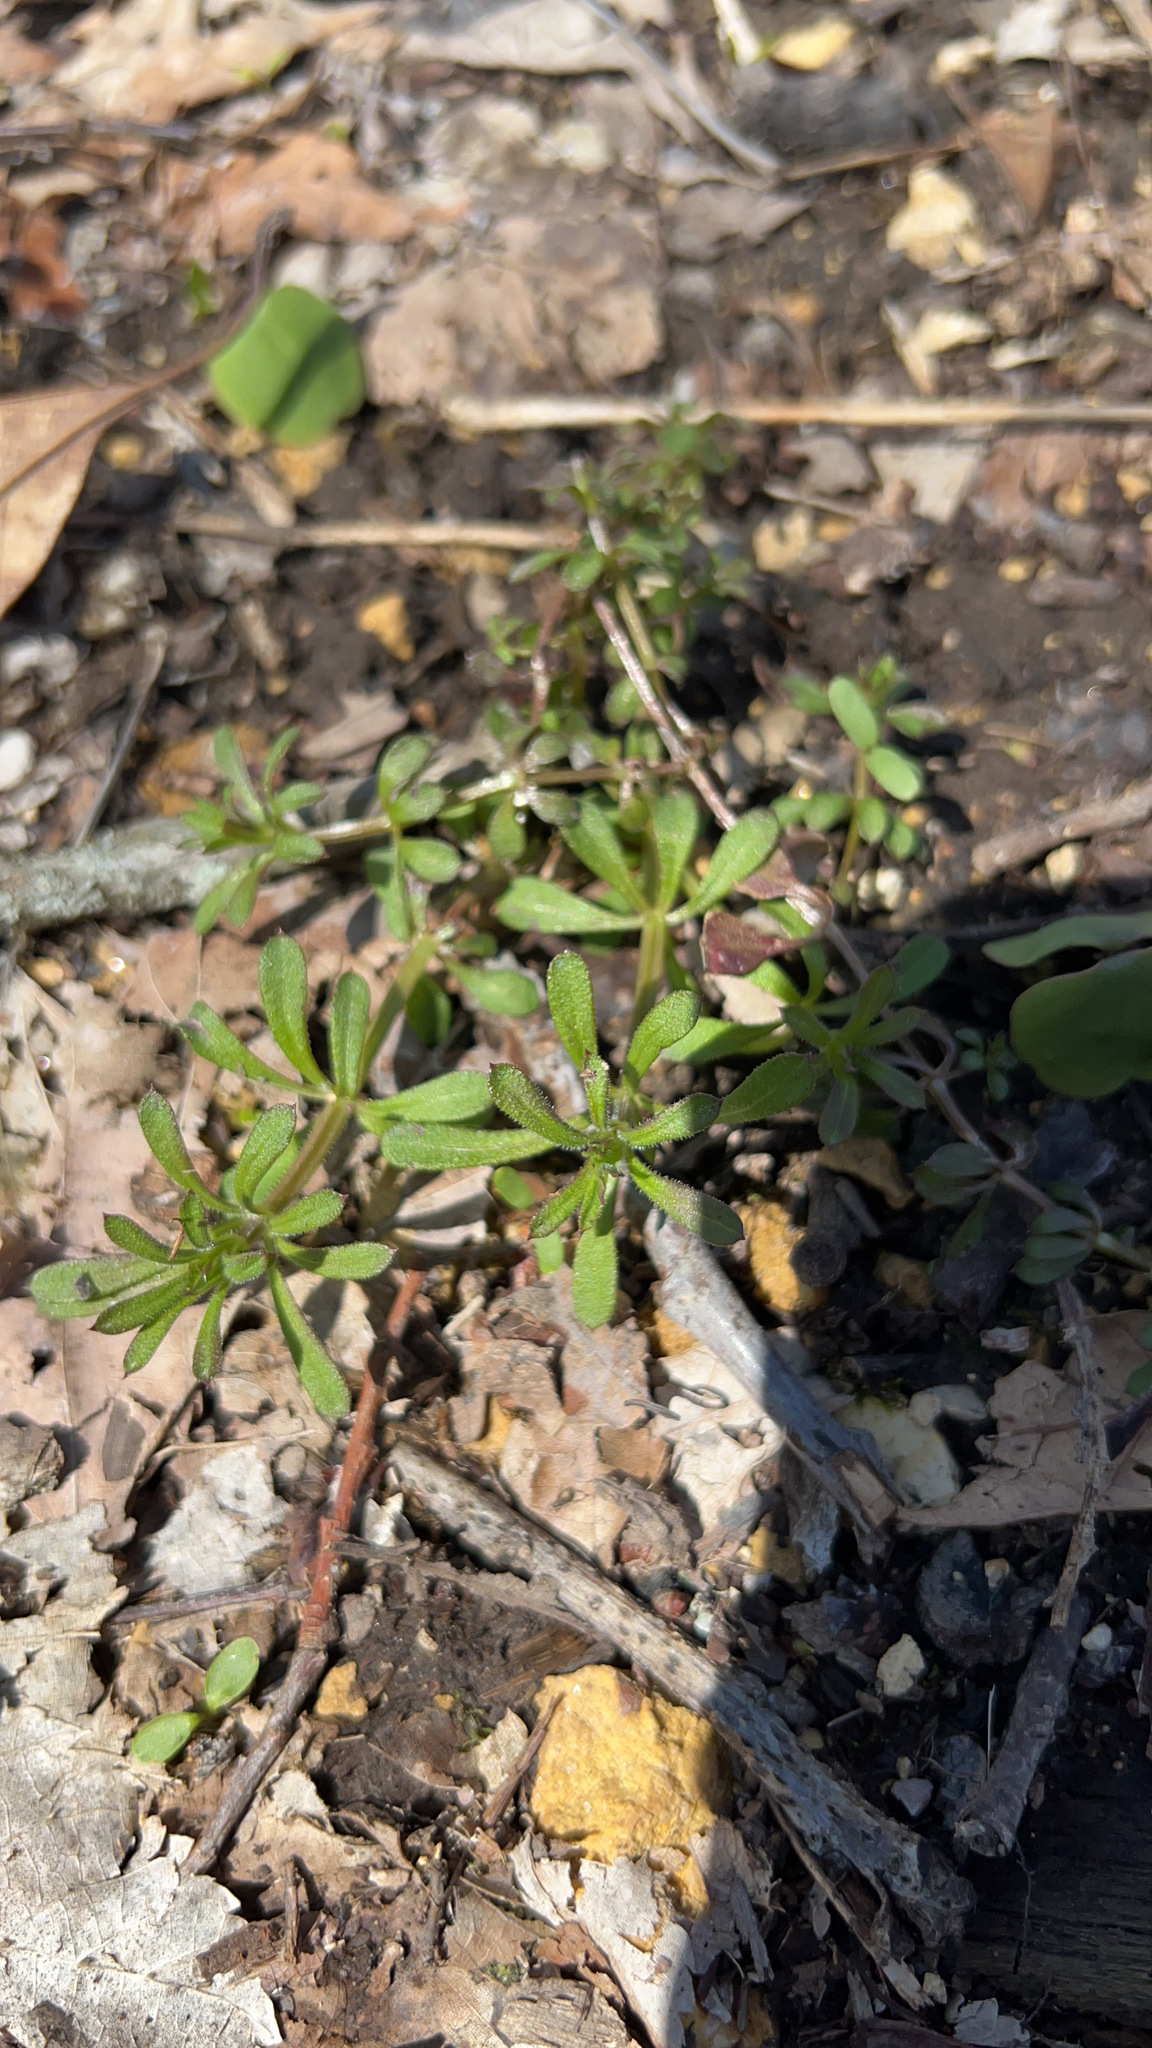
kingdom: Plantae
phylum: Tracheophyta
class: Magnoliopsida
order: Gentianales
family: Rubiaceae
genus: Galium
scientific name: Galium aparine
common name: Cleavers
